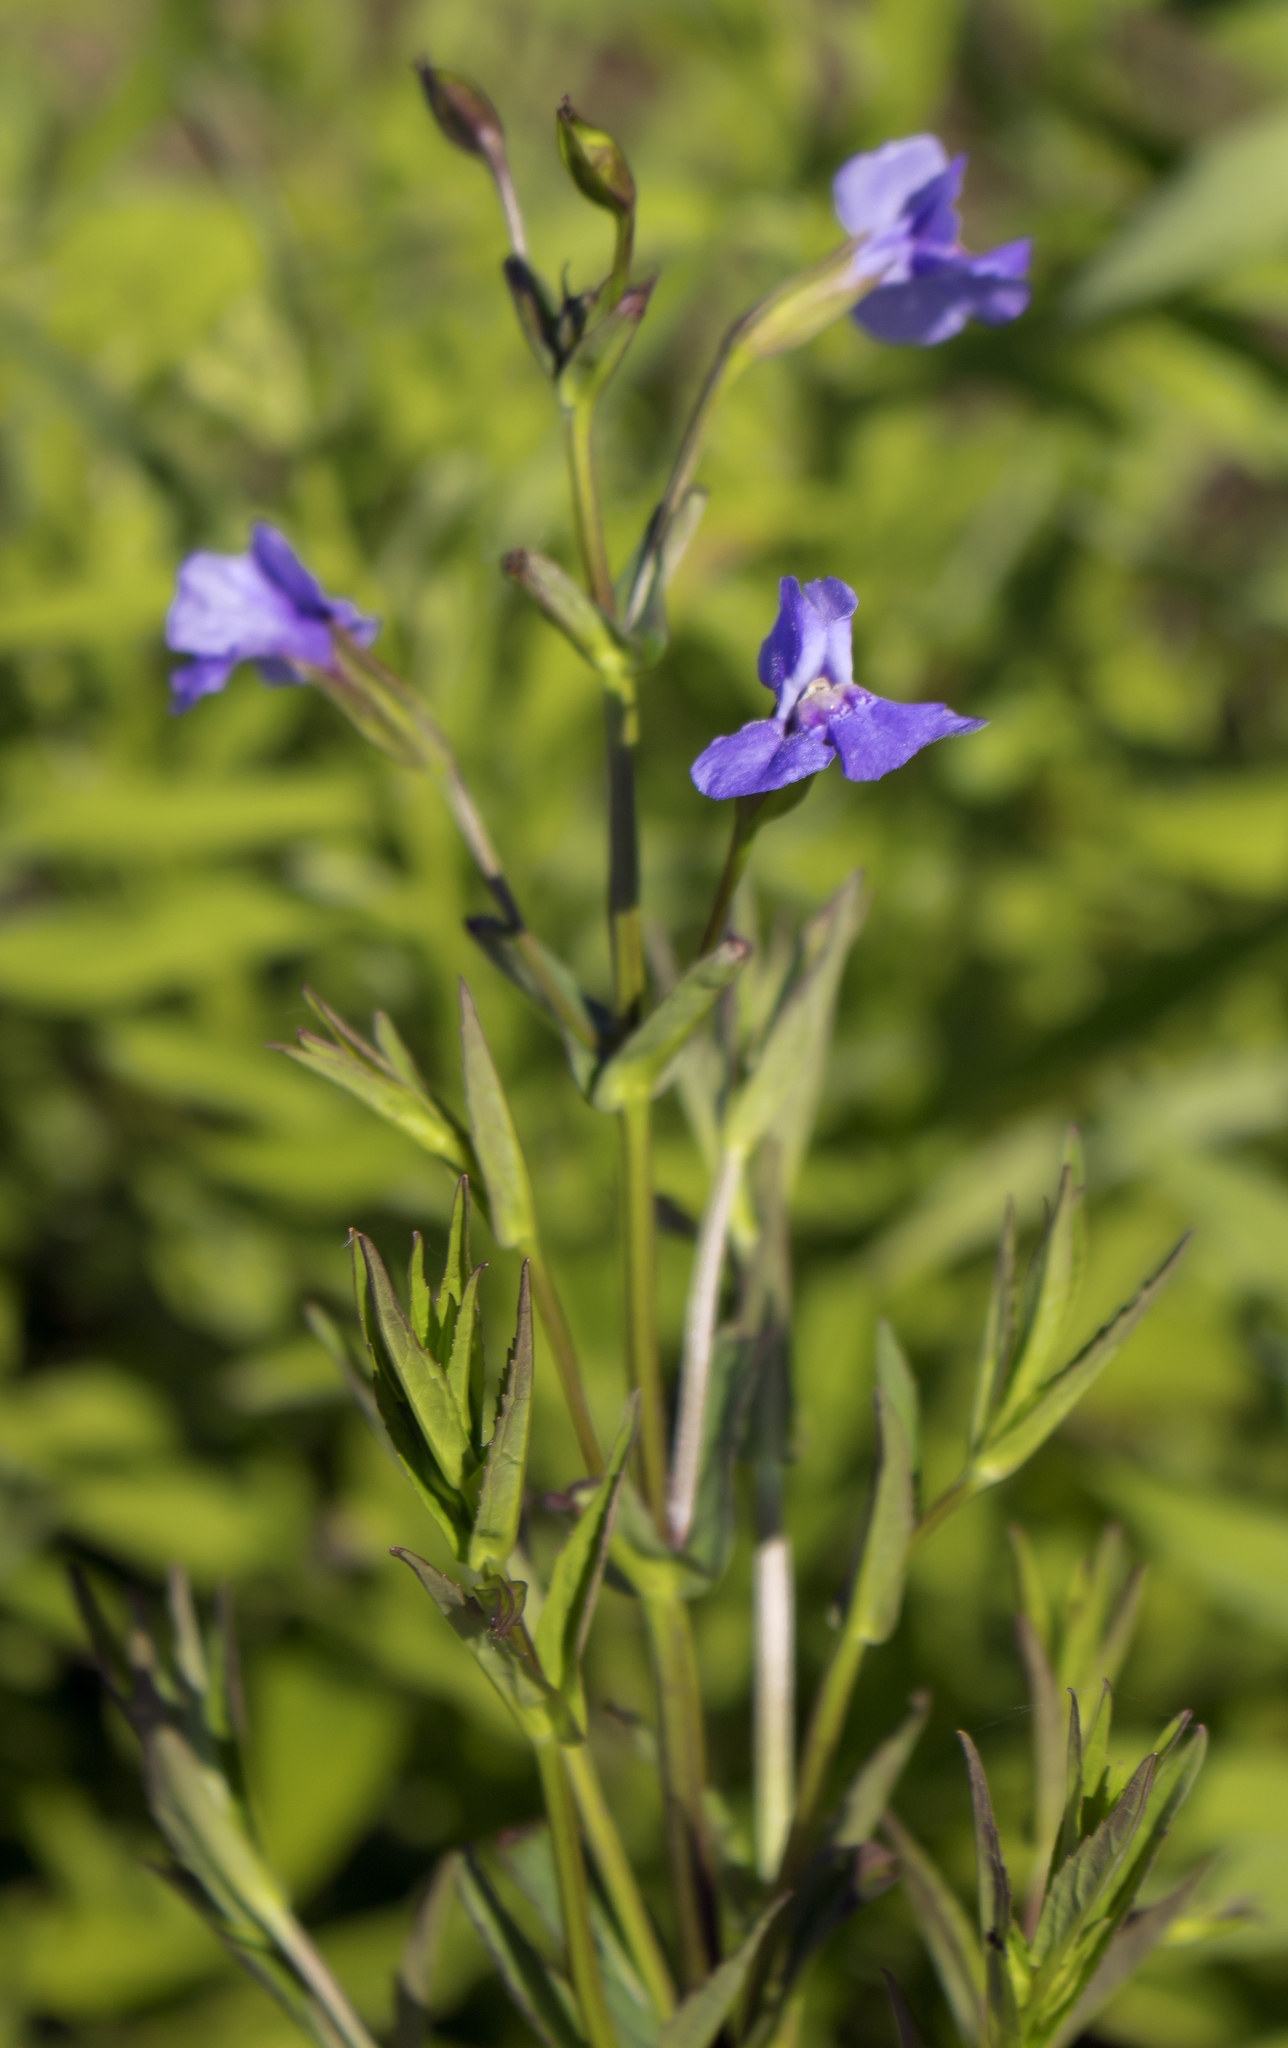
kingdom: Plantae
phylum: Tracheophyta
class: Magnoliopsida
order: Lamiales
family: Phrymaceae
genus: Mimulus
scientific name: Mimulus ringens
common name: Allegheny monkeyflower
